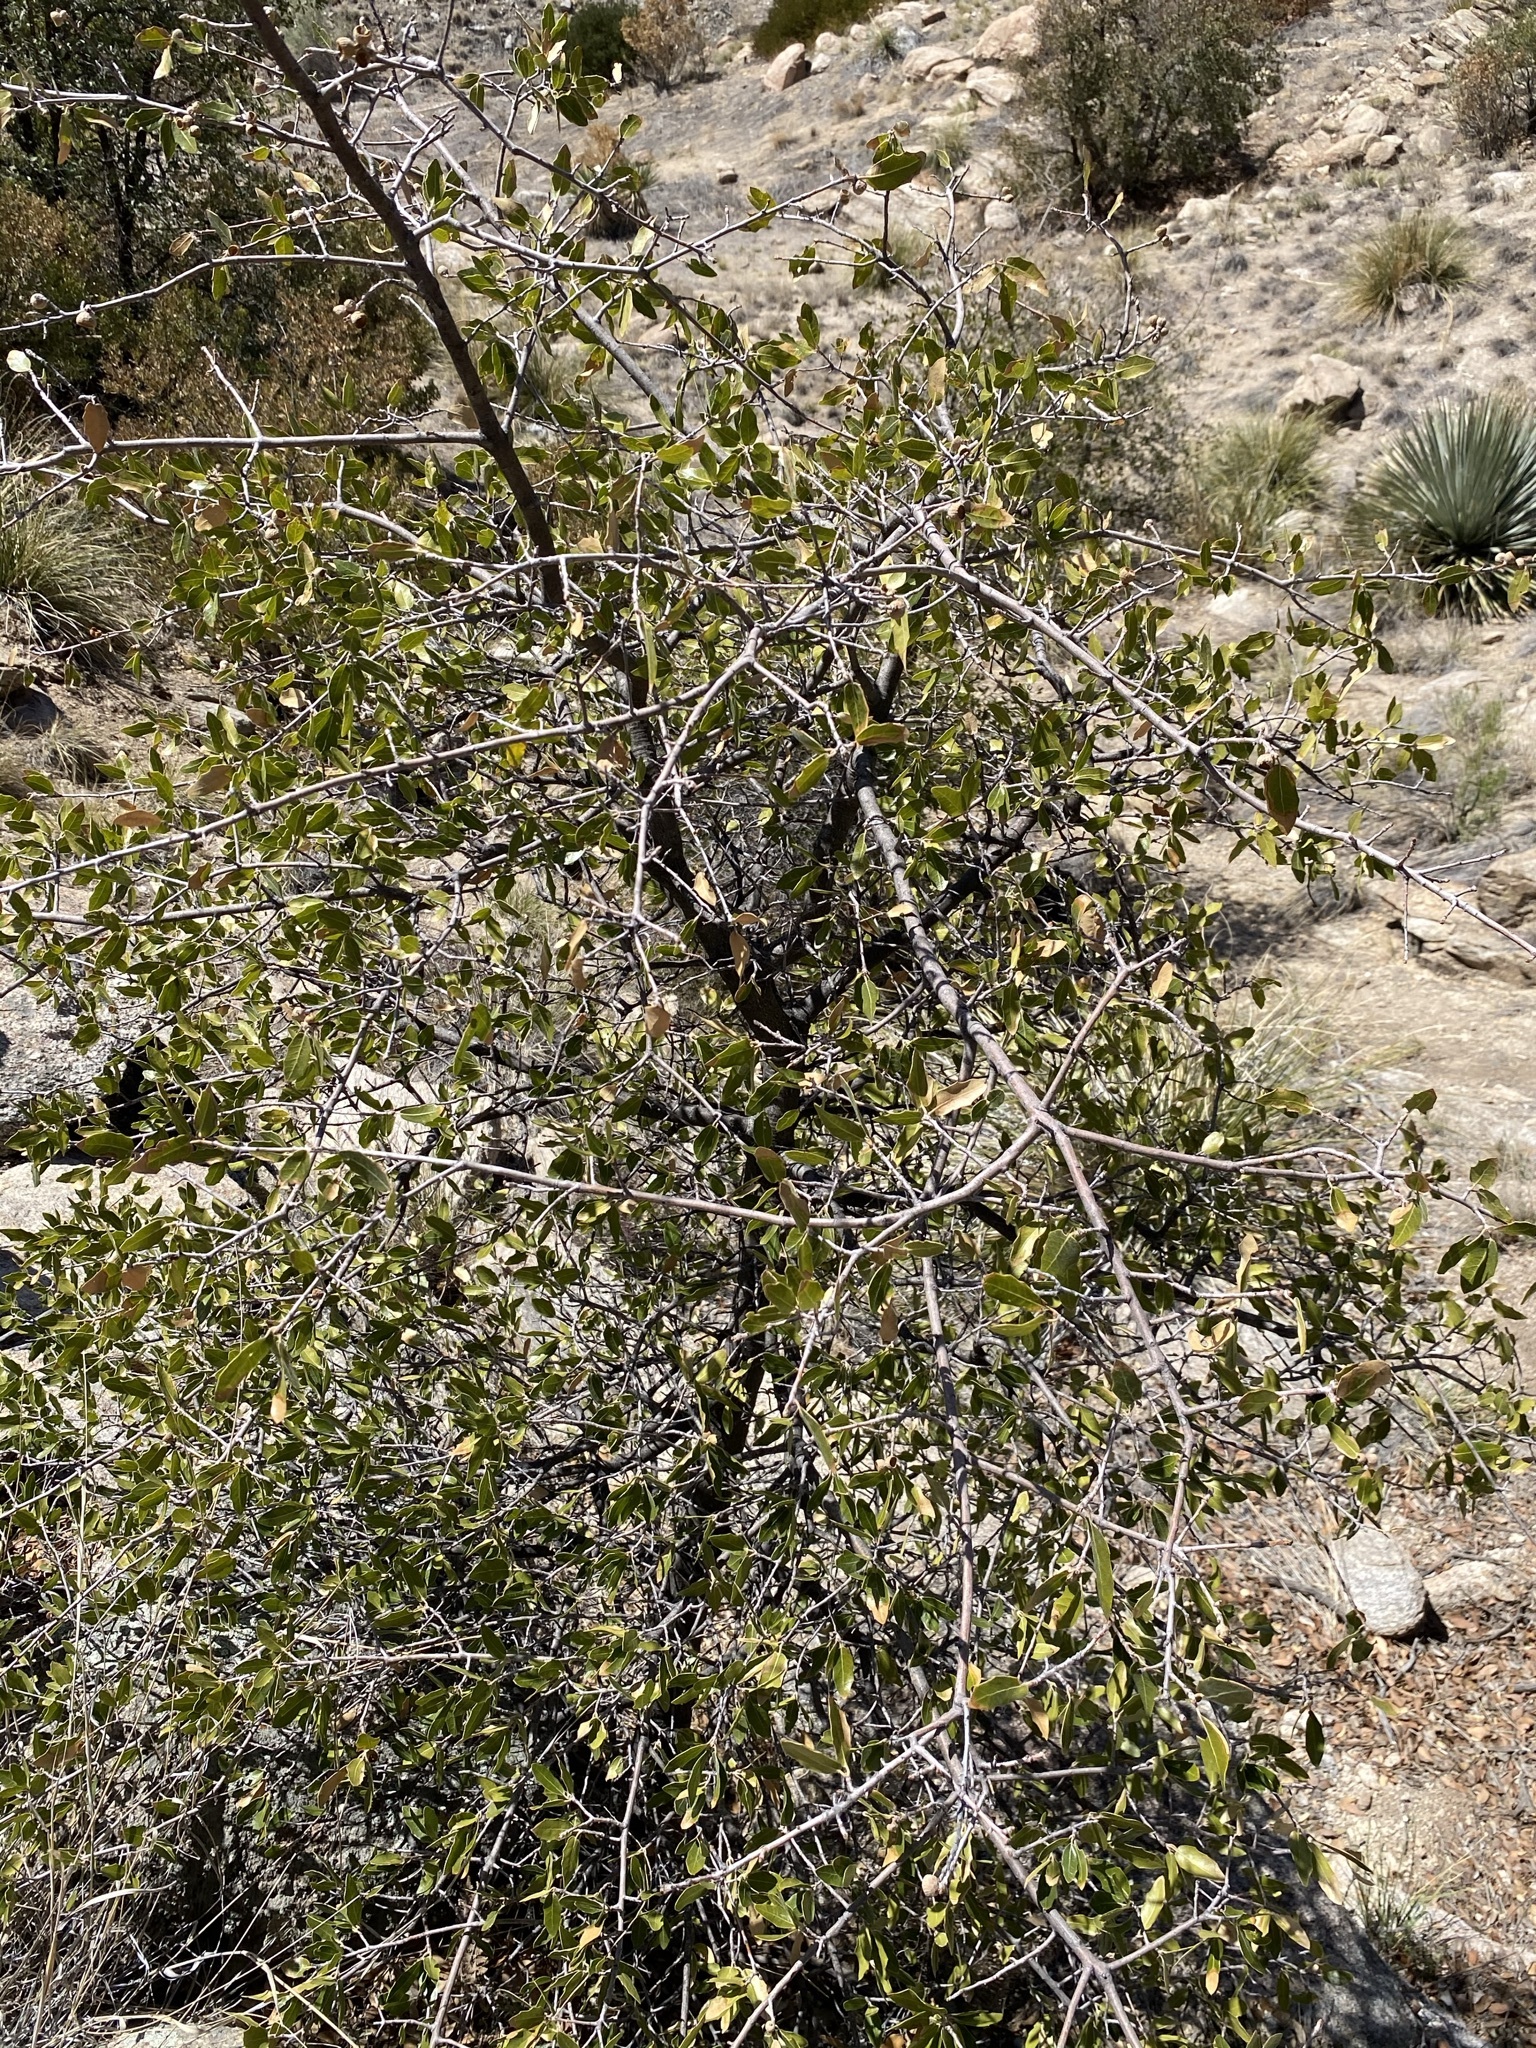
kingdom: Plantae
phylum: Tracheophyta
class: Magnoliopsida
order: Fagales
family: Fagaceae
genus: Quercus
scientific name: Quercus emoryi
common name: Emory oak
